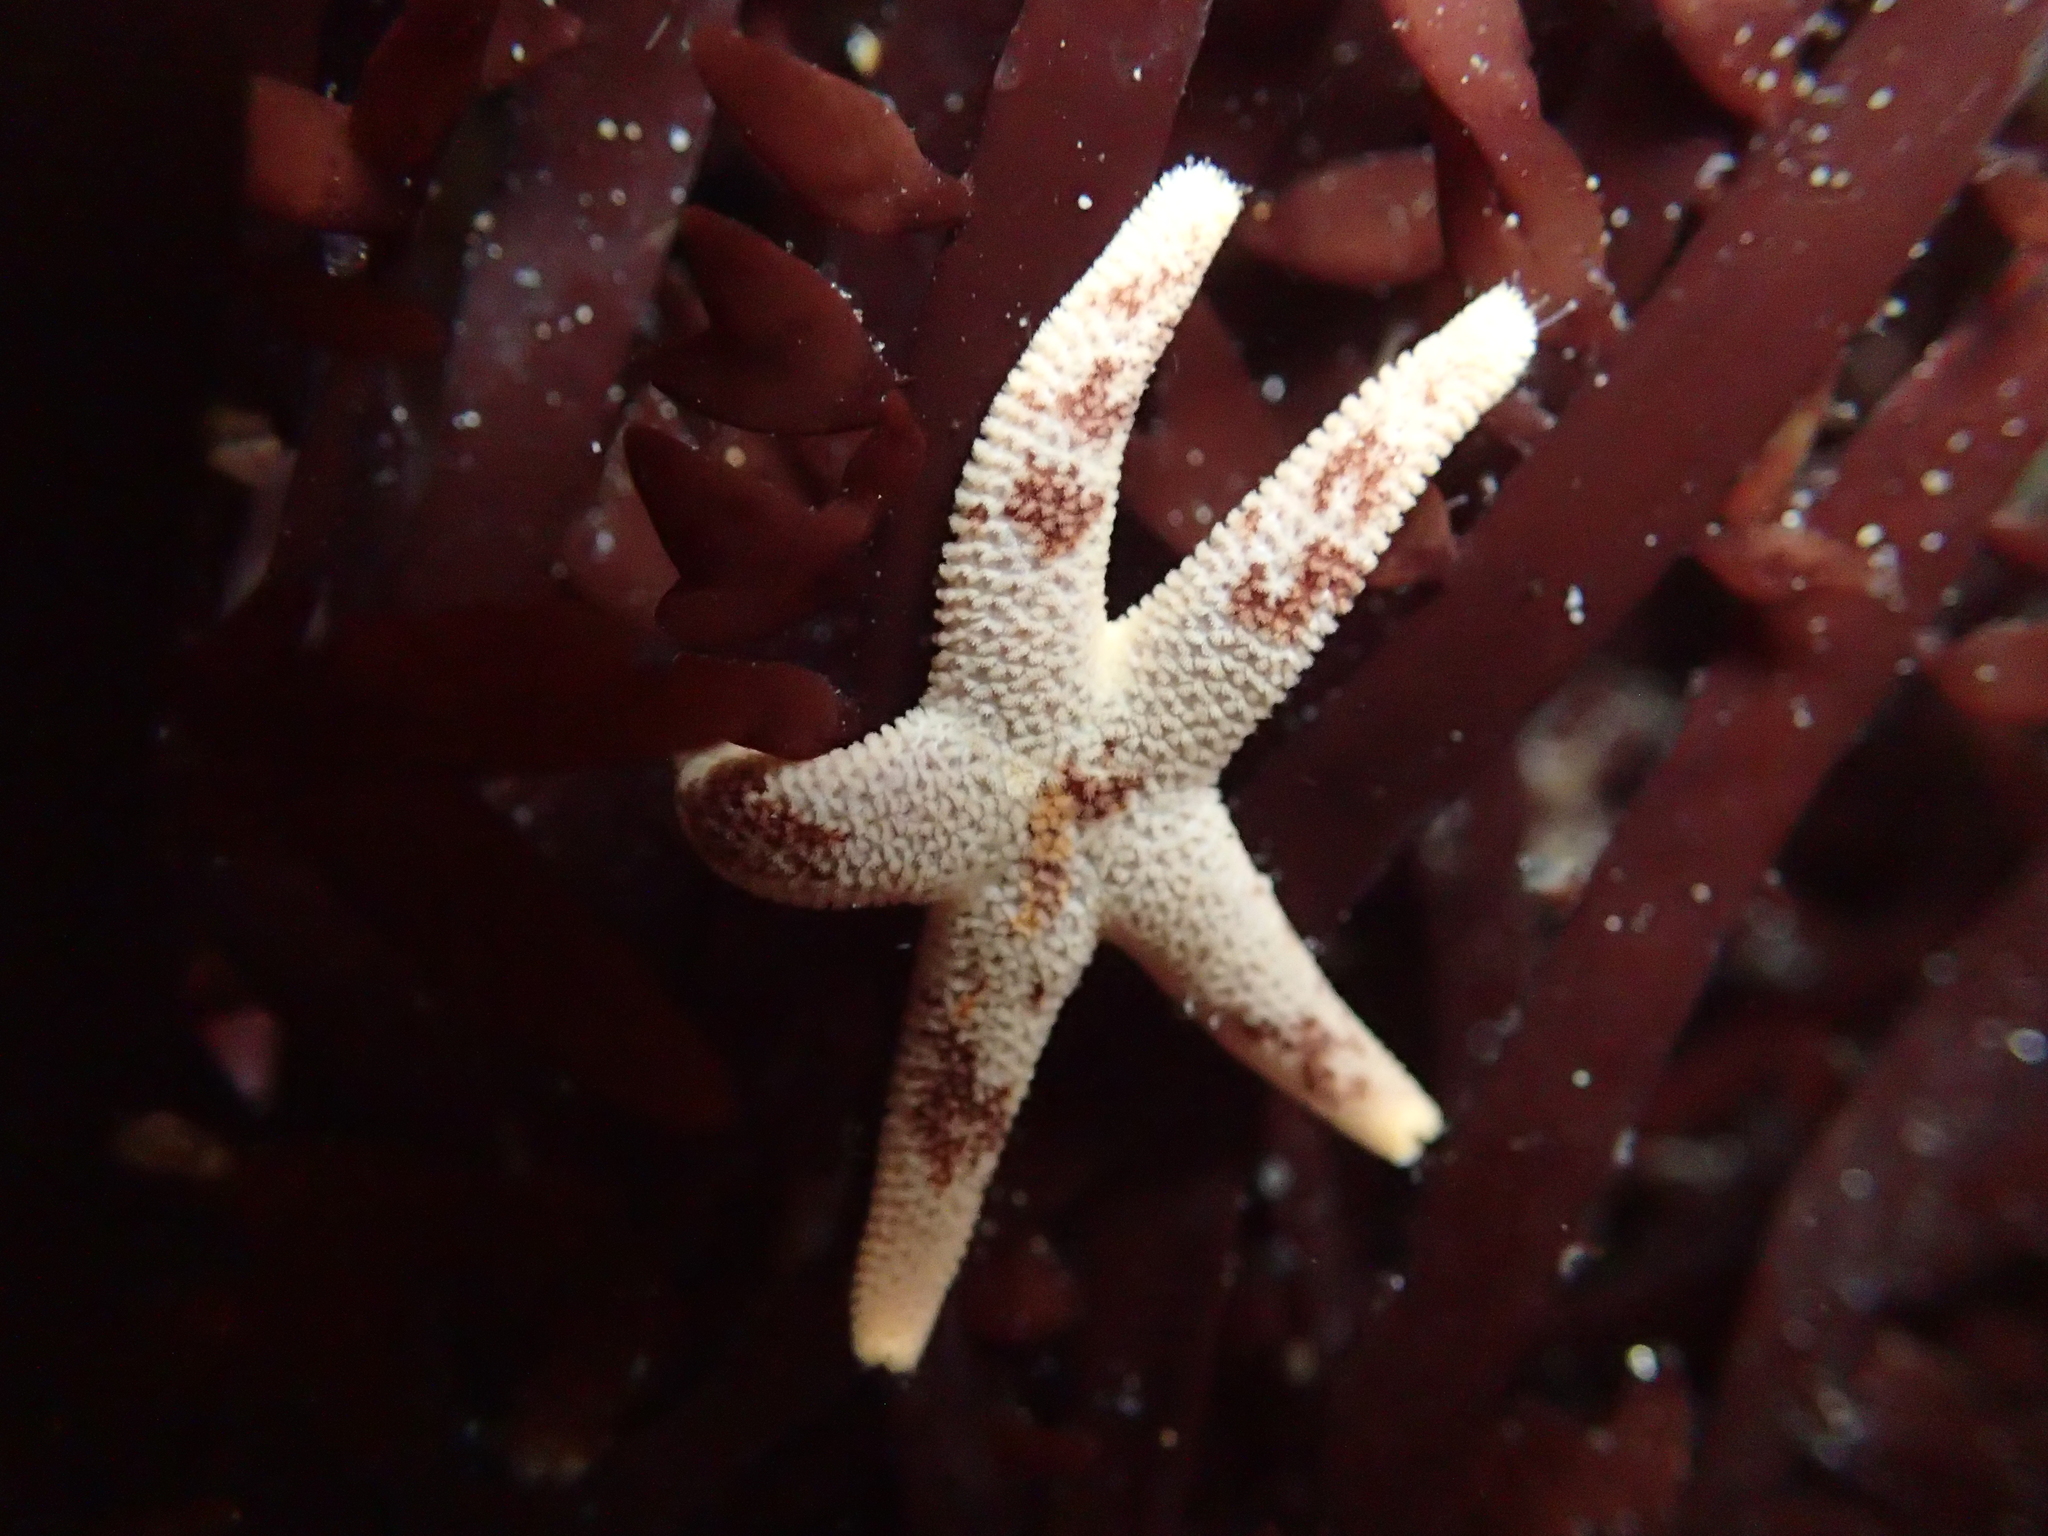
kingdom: Animalia
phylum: Echinodermata
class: Asteroidea
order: Spinulosida
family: Echinasteridae
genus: Henricia
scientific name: Henricia pumila
